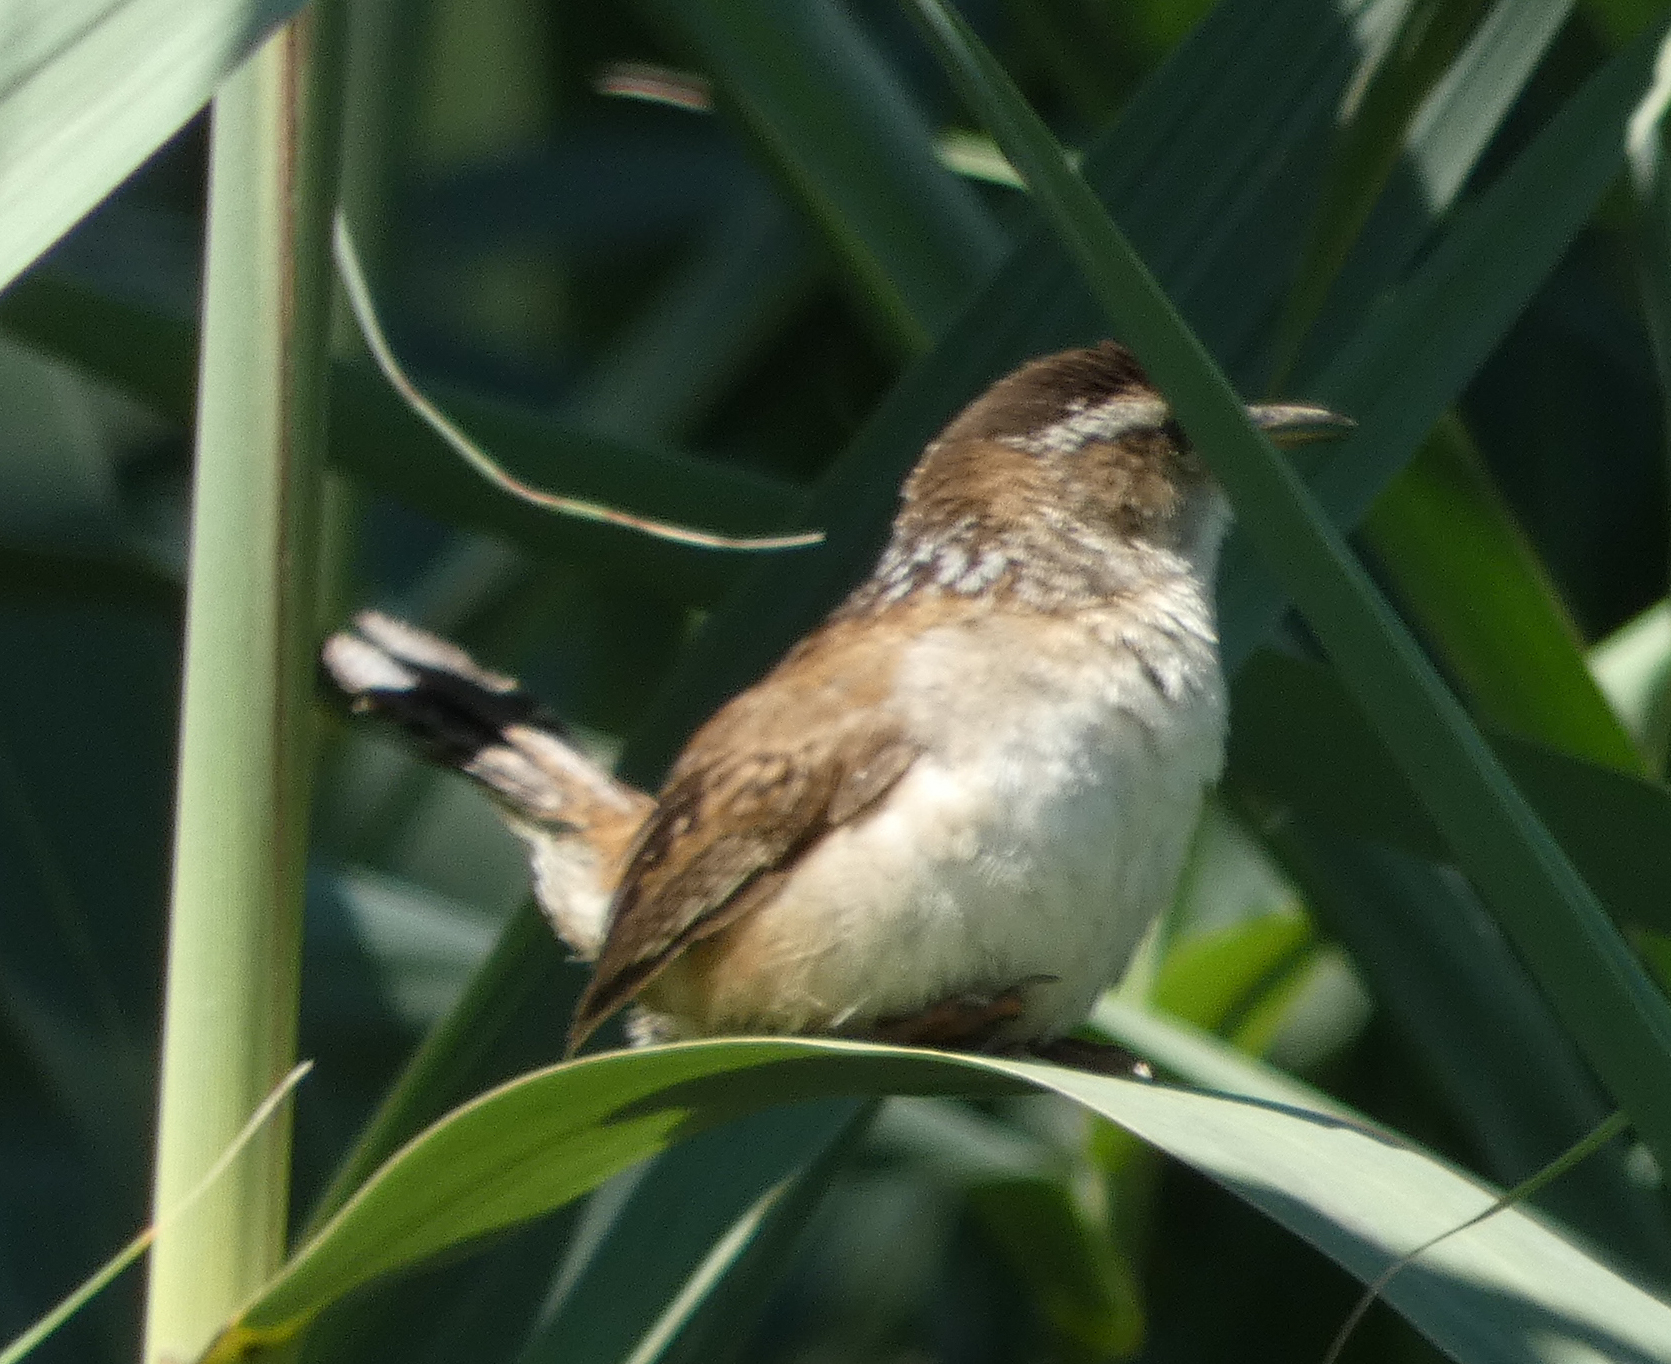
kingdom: Animalia
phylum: Chordata
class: Aves
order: Passeriformes
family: Troglodytidae
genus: Cistothorus
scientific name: Cistothorus palustris
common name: Marsh wren
